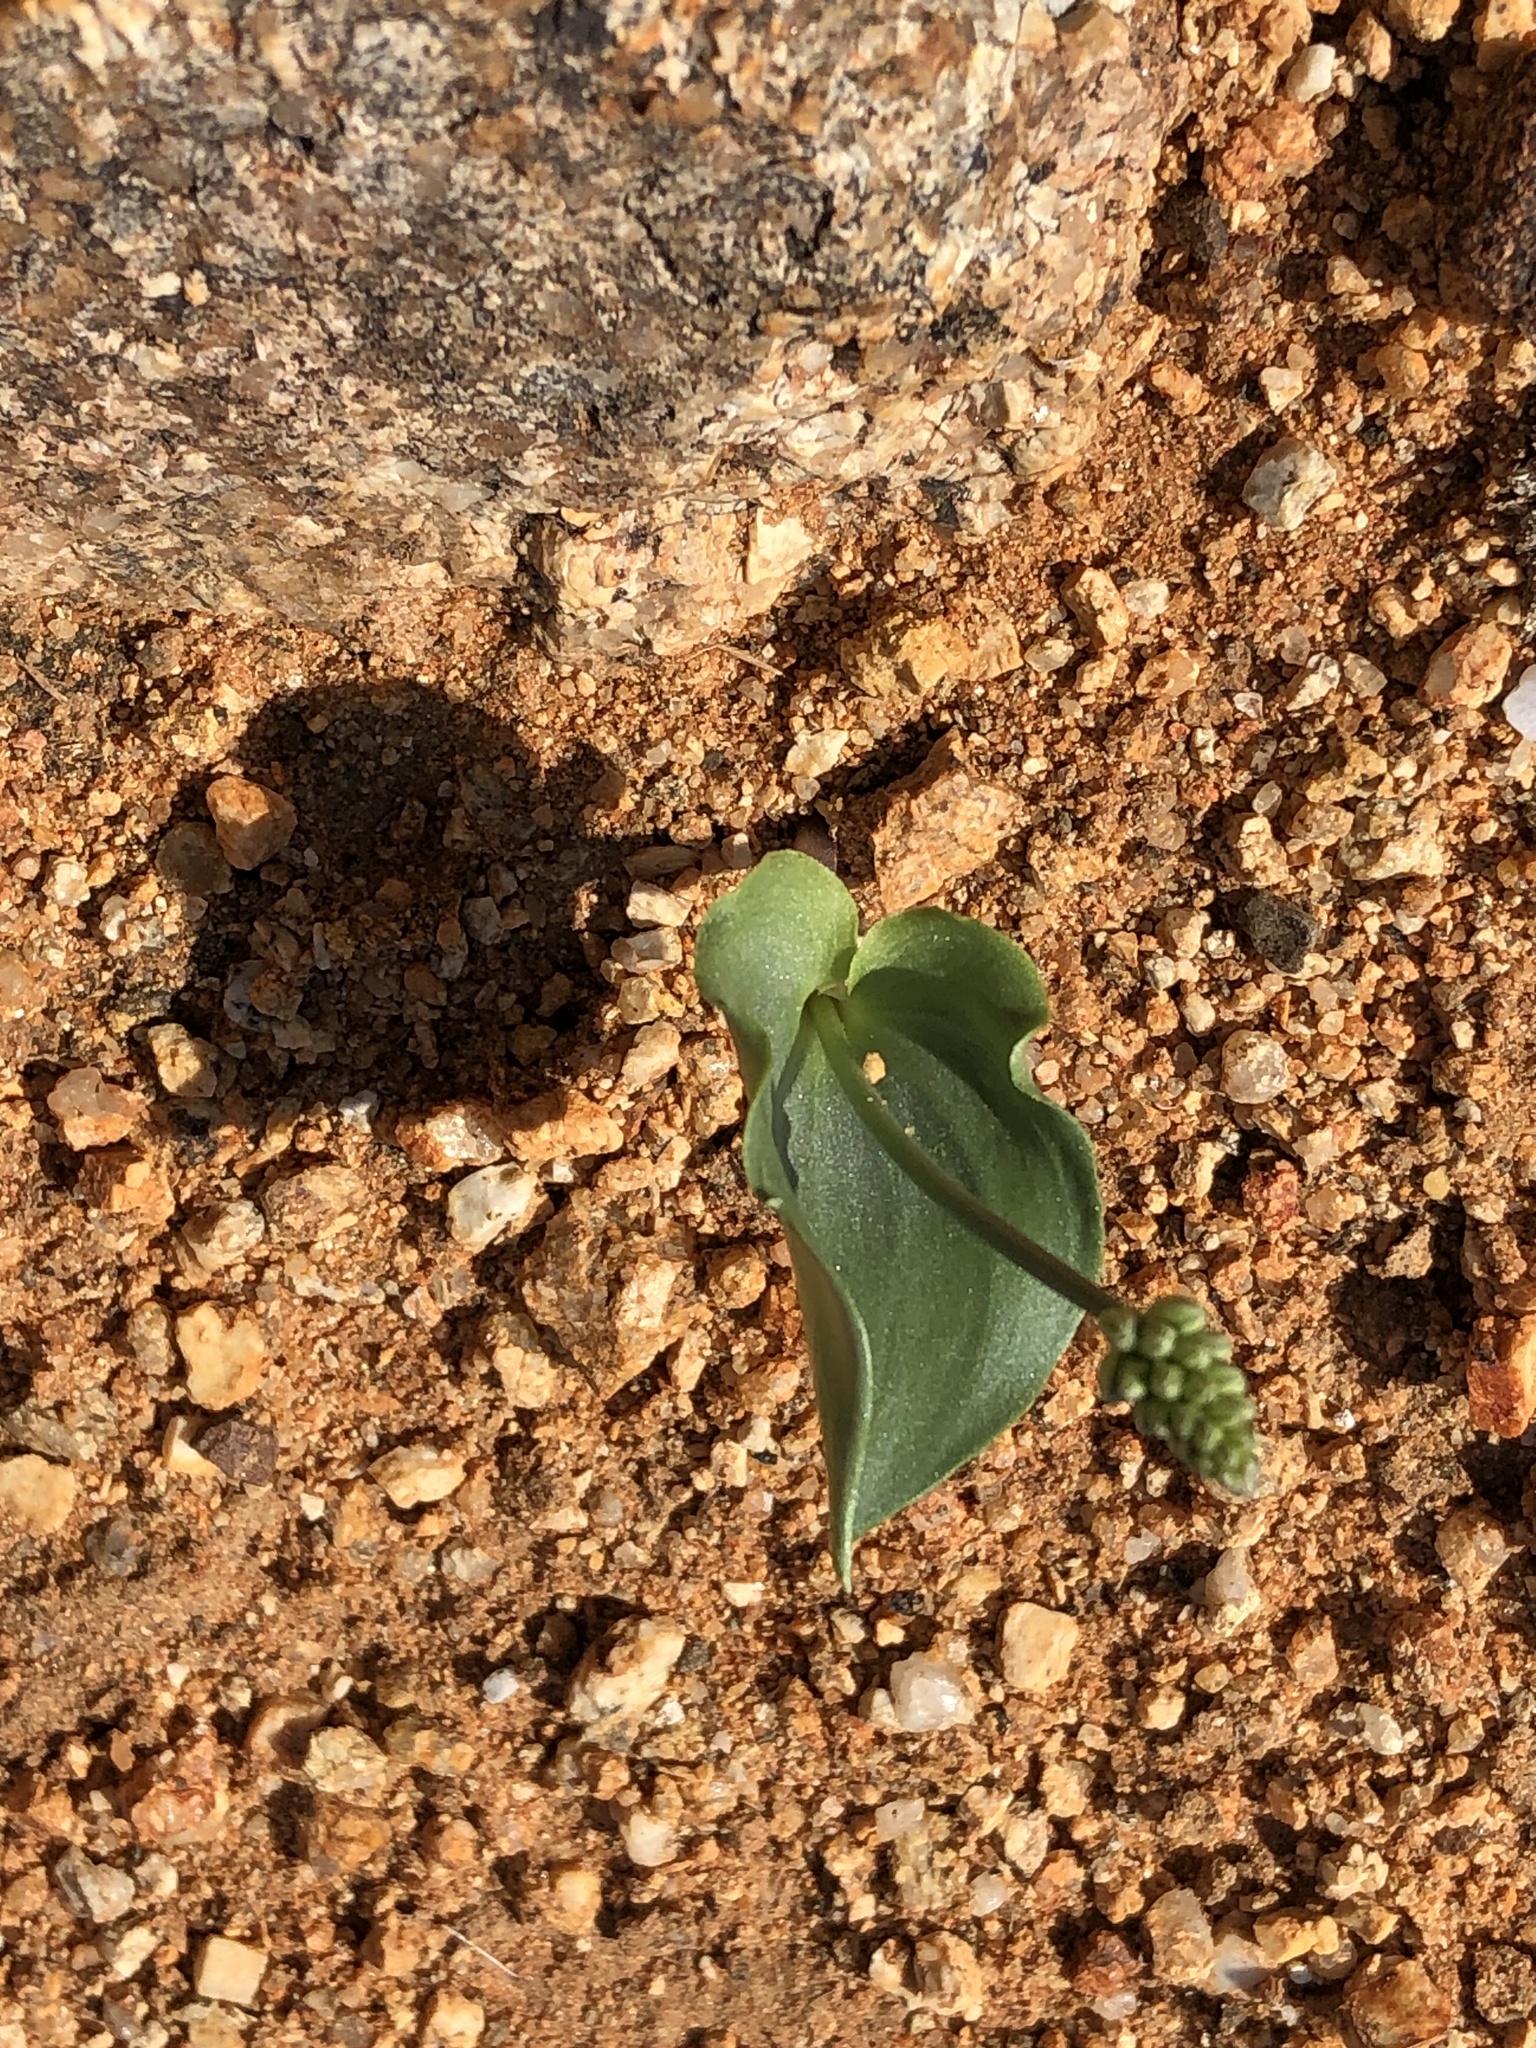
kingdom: Plantae
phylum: Tracheophyta
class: Liliopsida
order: Asparagales
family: Asparagaceae
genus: Eriospermum
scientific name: Eriospermum roseum
